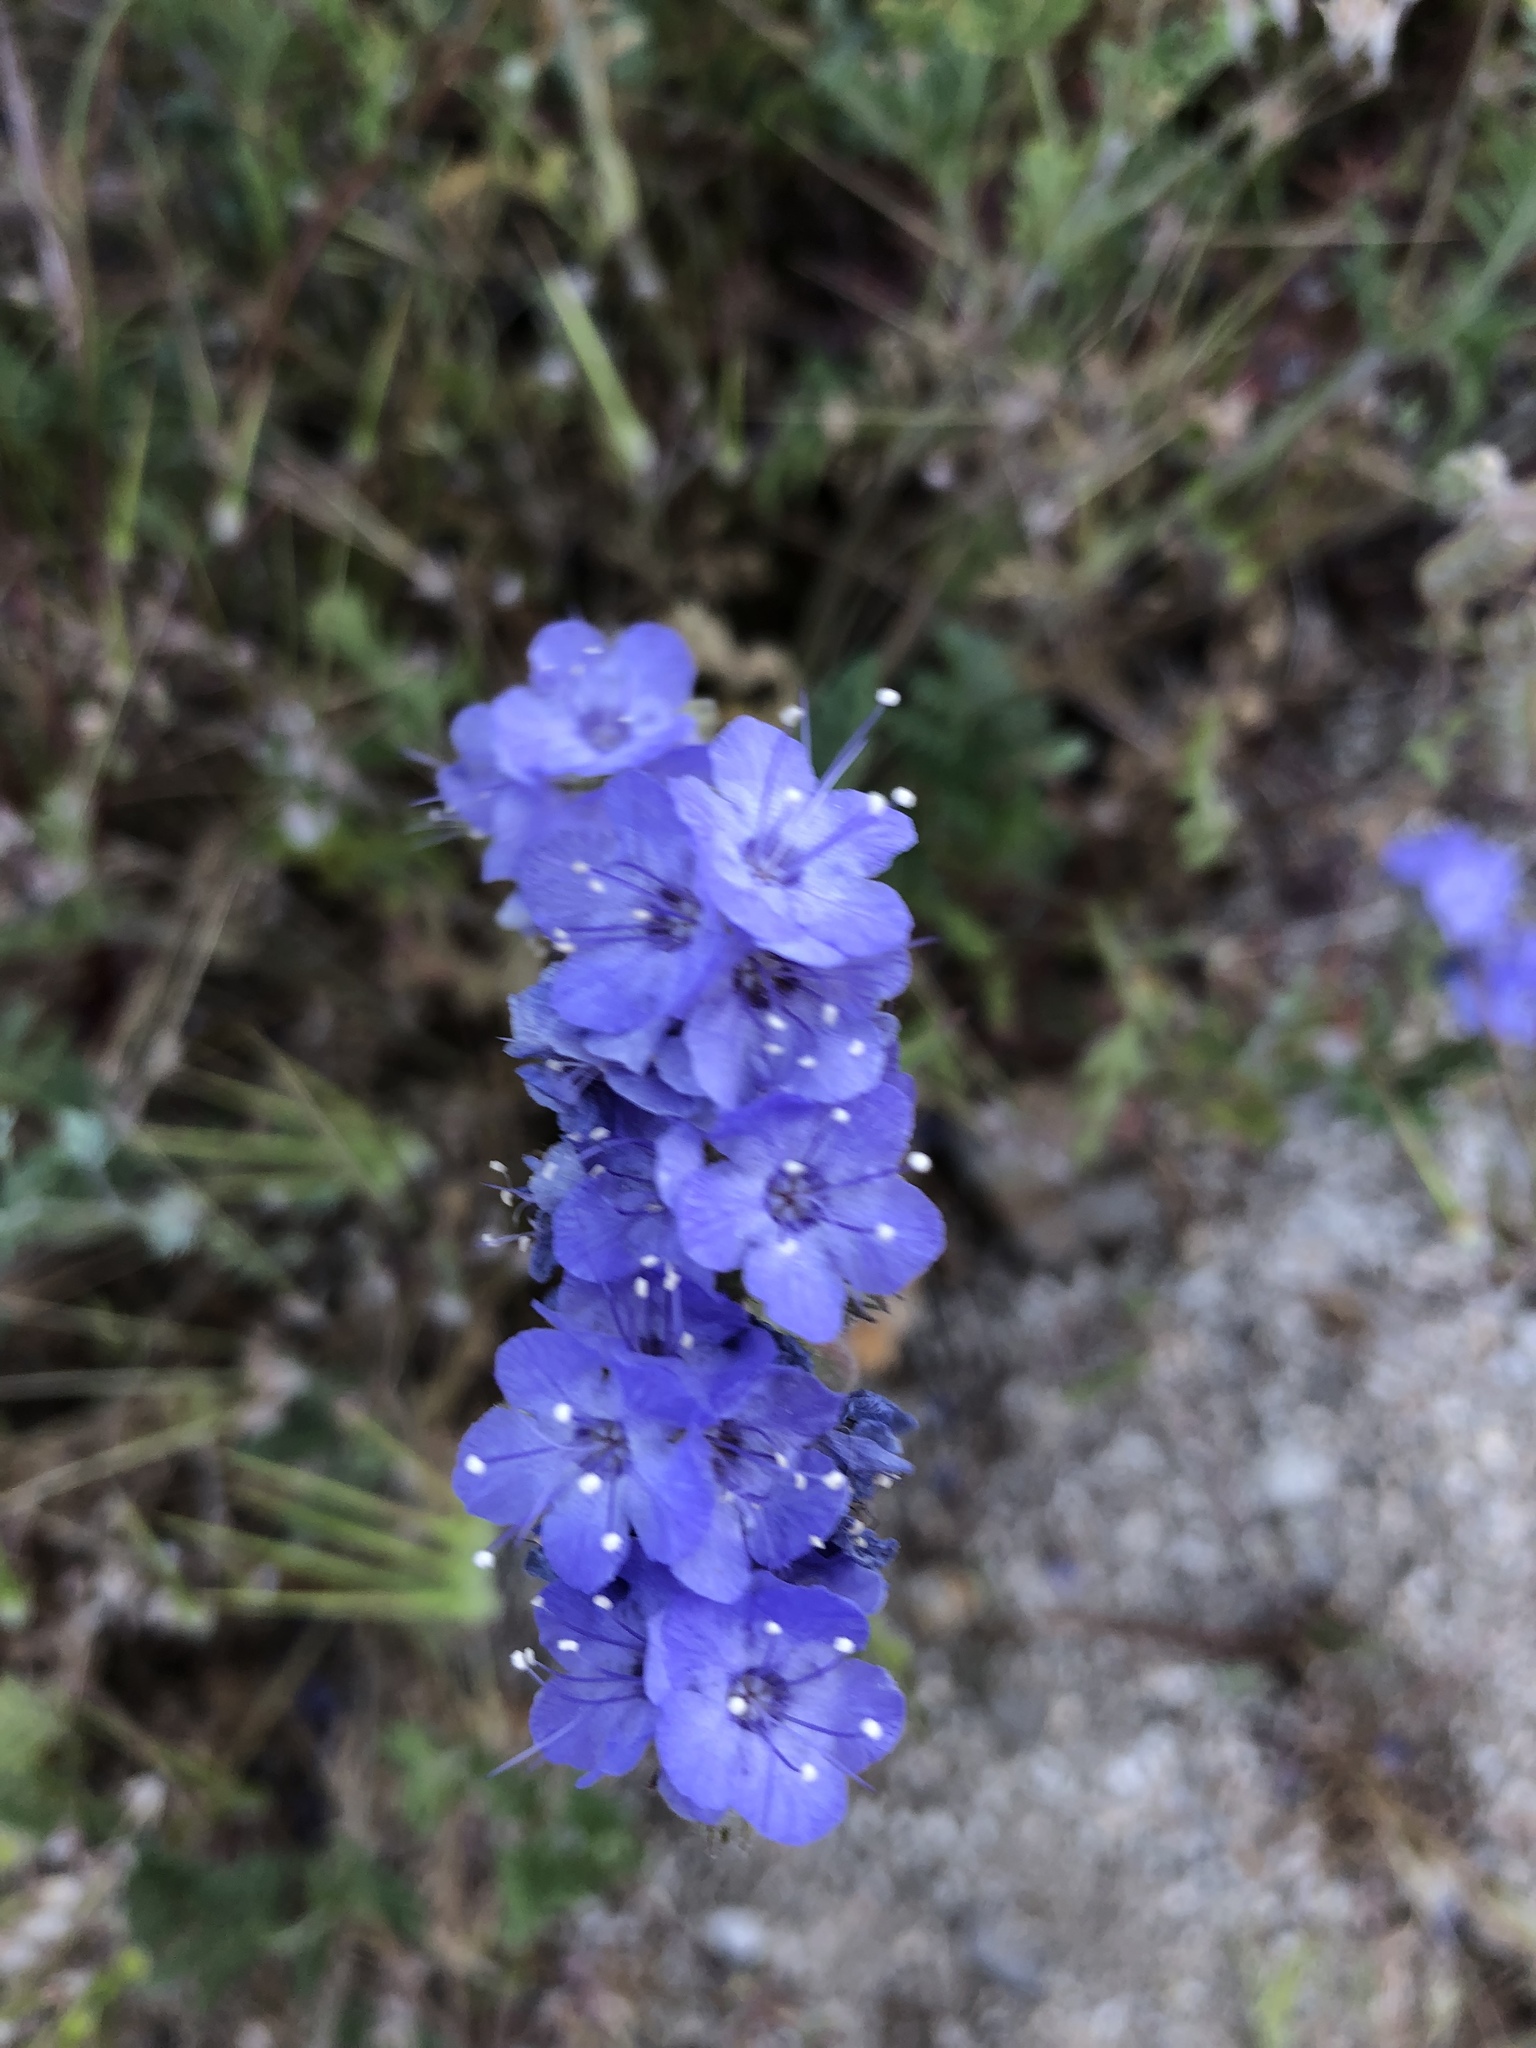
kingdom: Plantae
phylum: Tracheophyta
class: Magnoliopsida
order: Boraginales
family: Hydrophyllaceae
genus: Phacelia
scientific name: Phacelia distans
